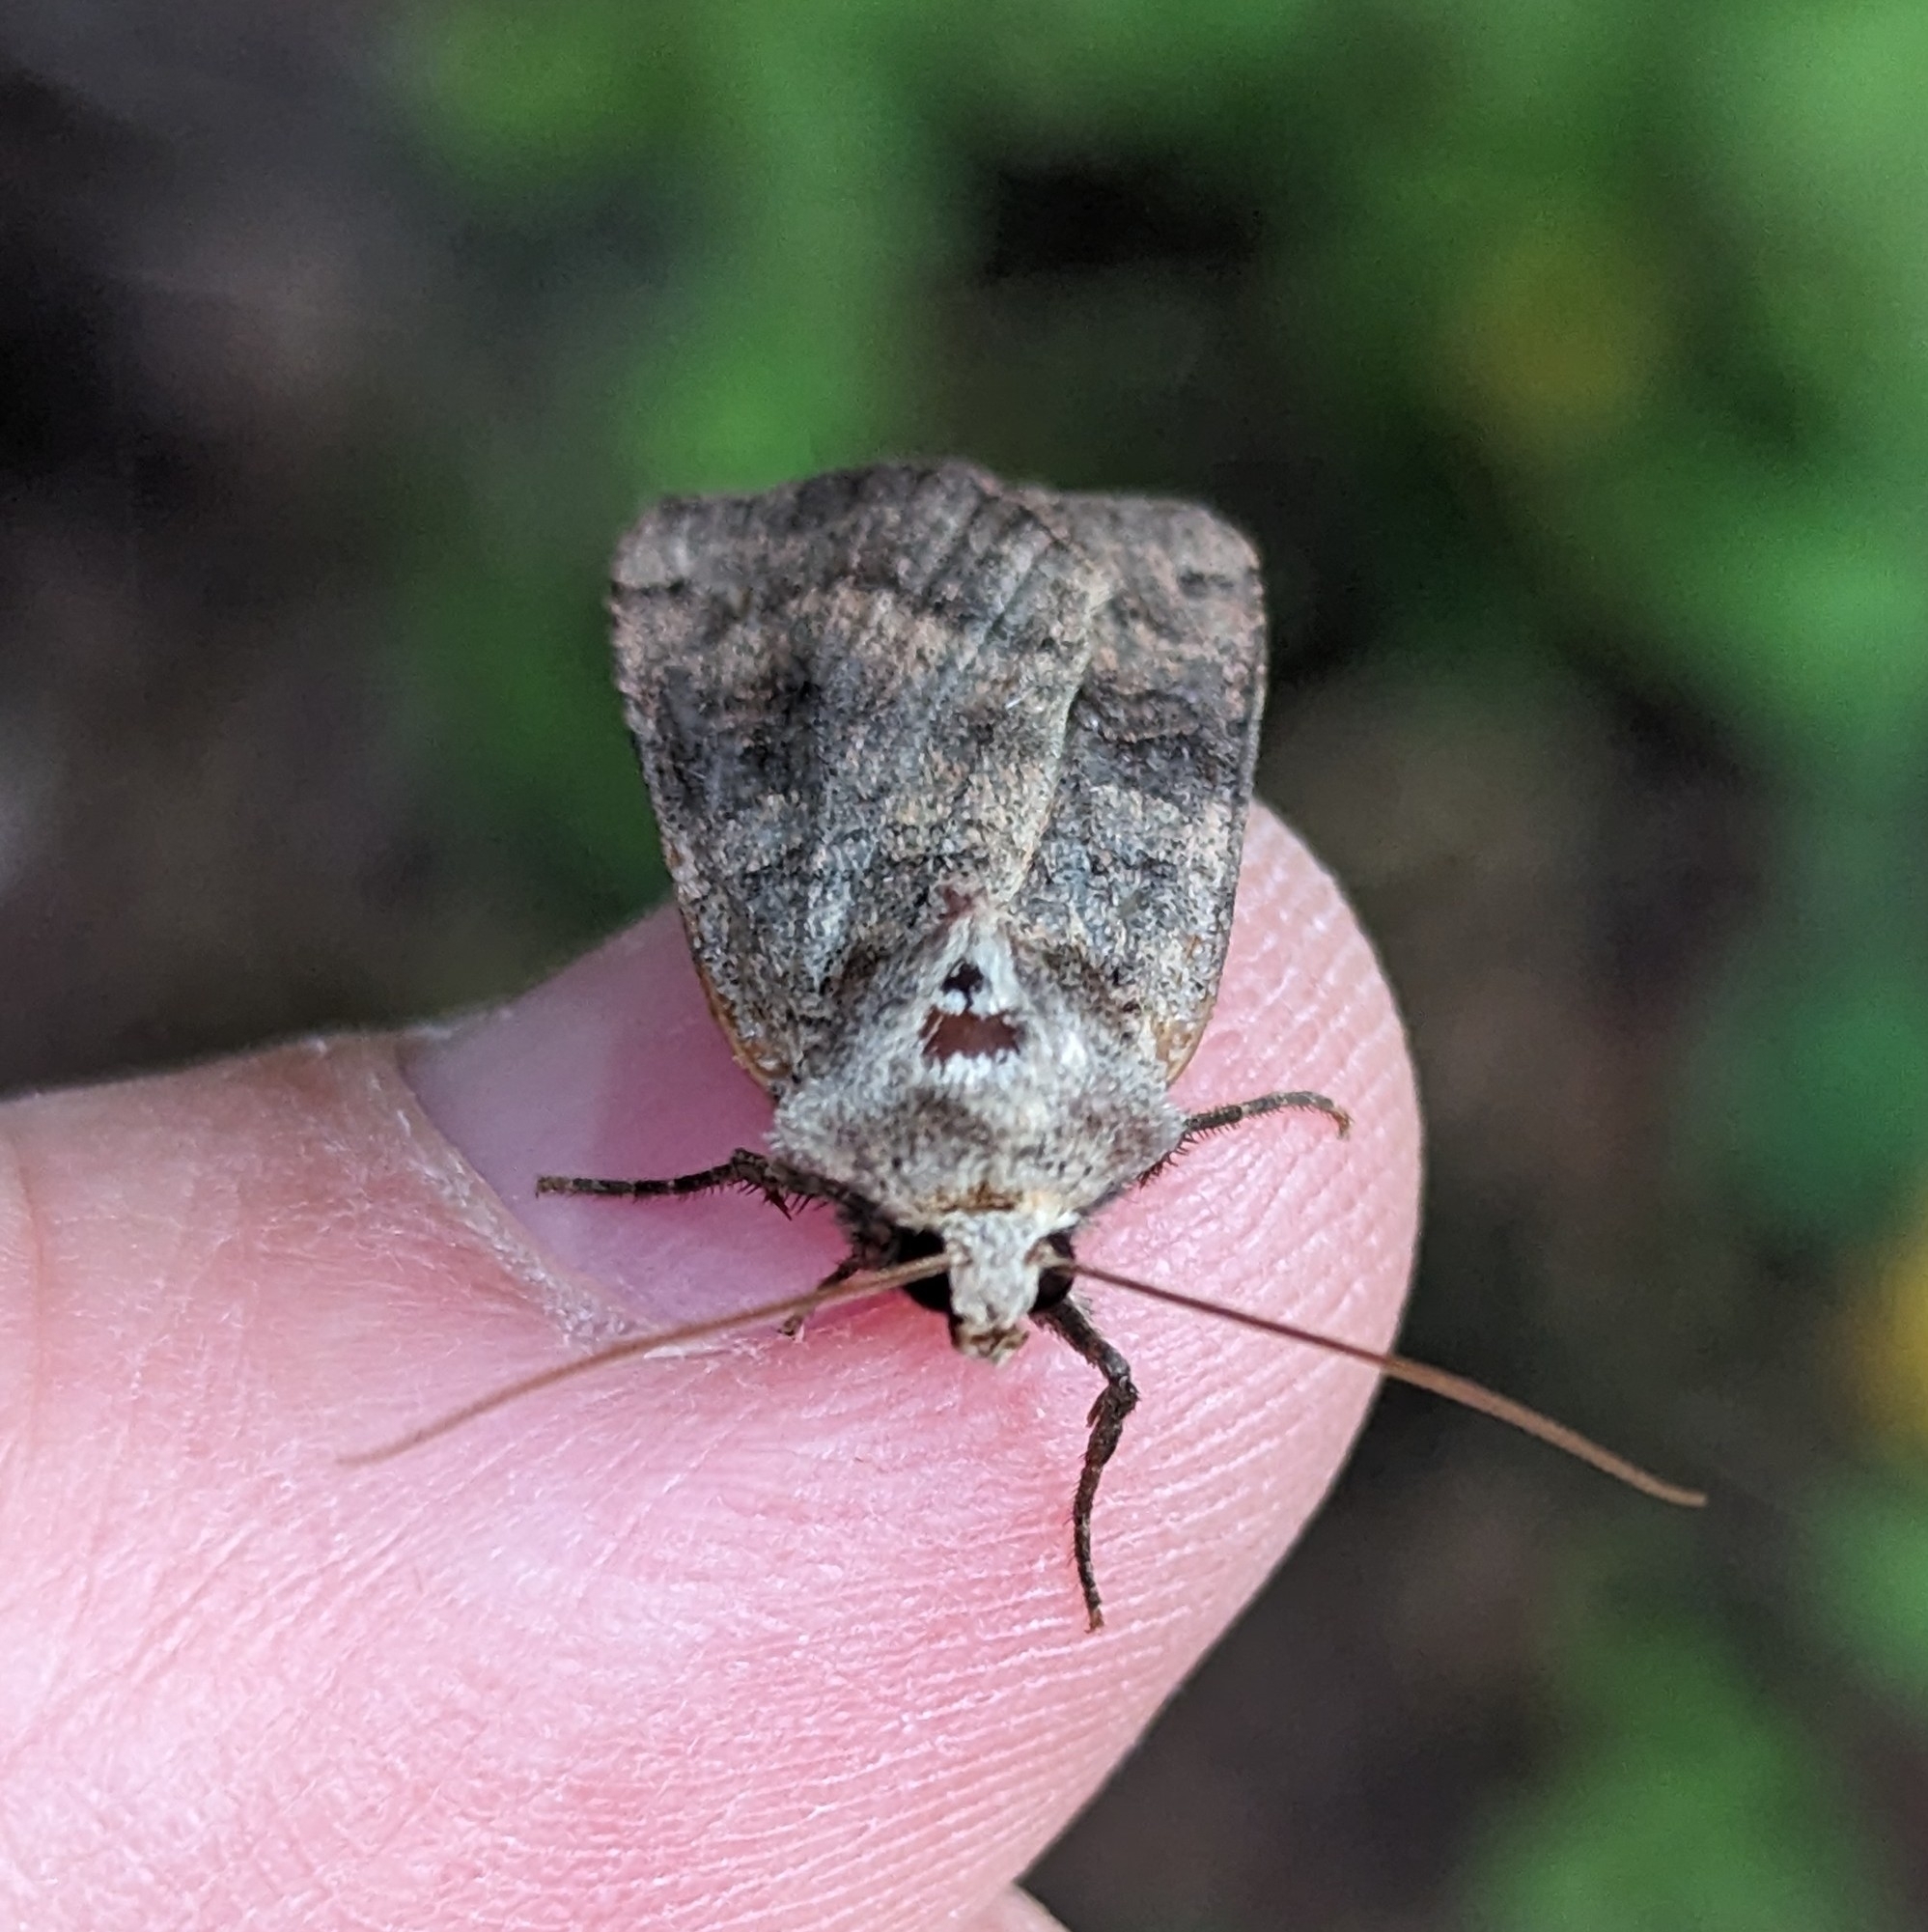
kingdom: Animalia
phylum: Arthropoda
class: Insecta
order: Lepidoptera
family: Noctuidae
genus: Xestia
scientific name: Xestia smithii
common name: Smith's dart
